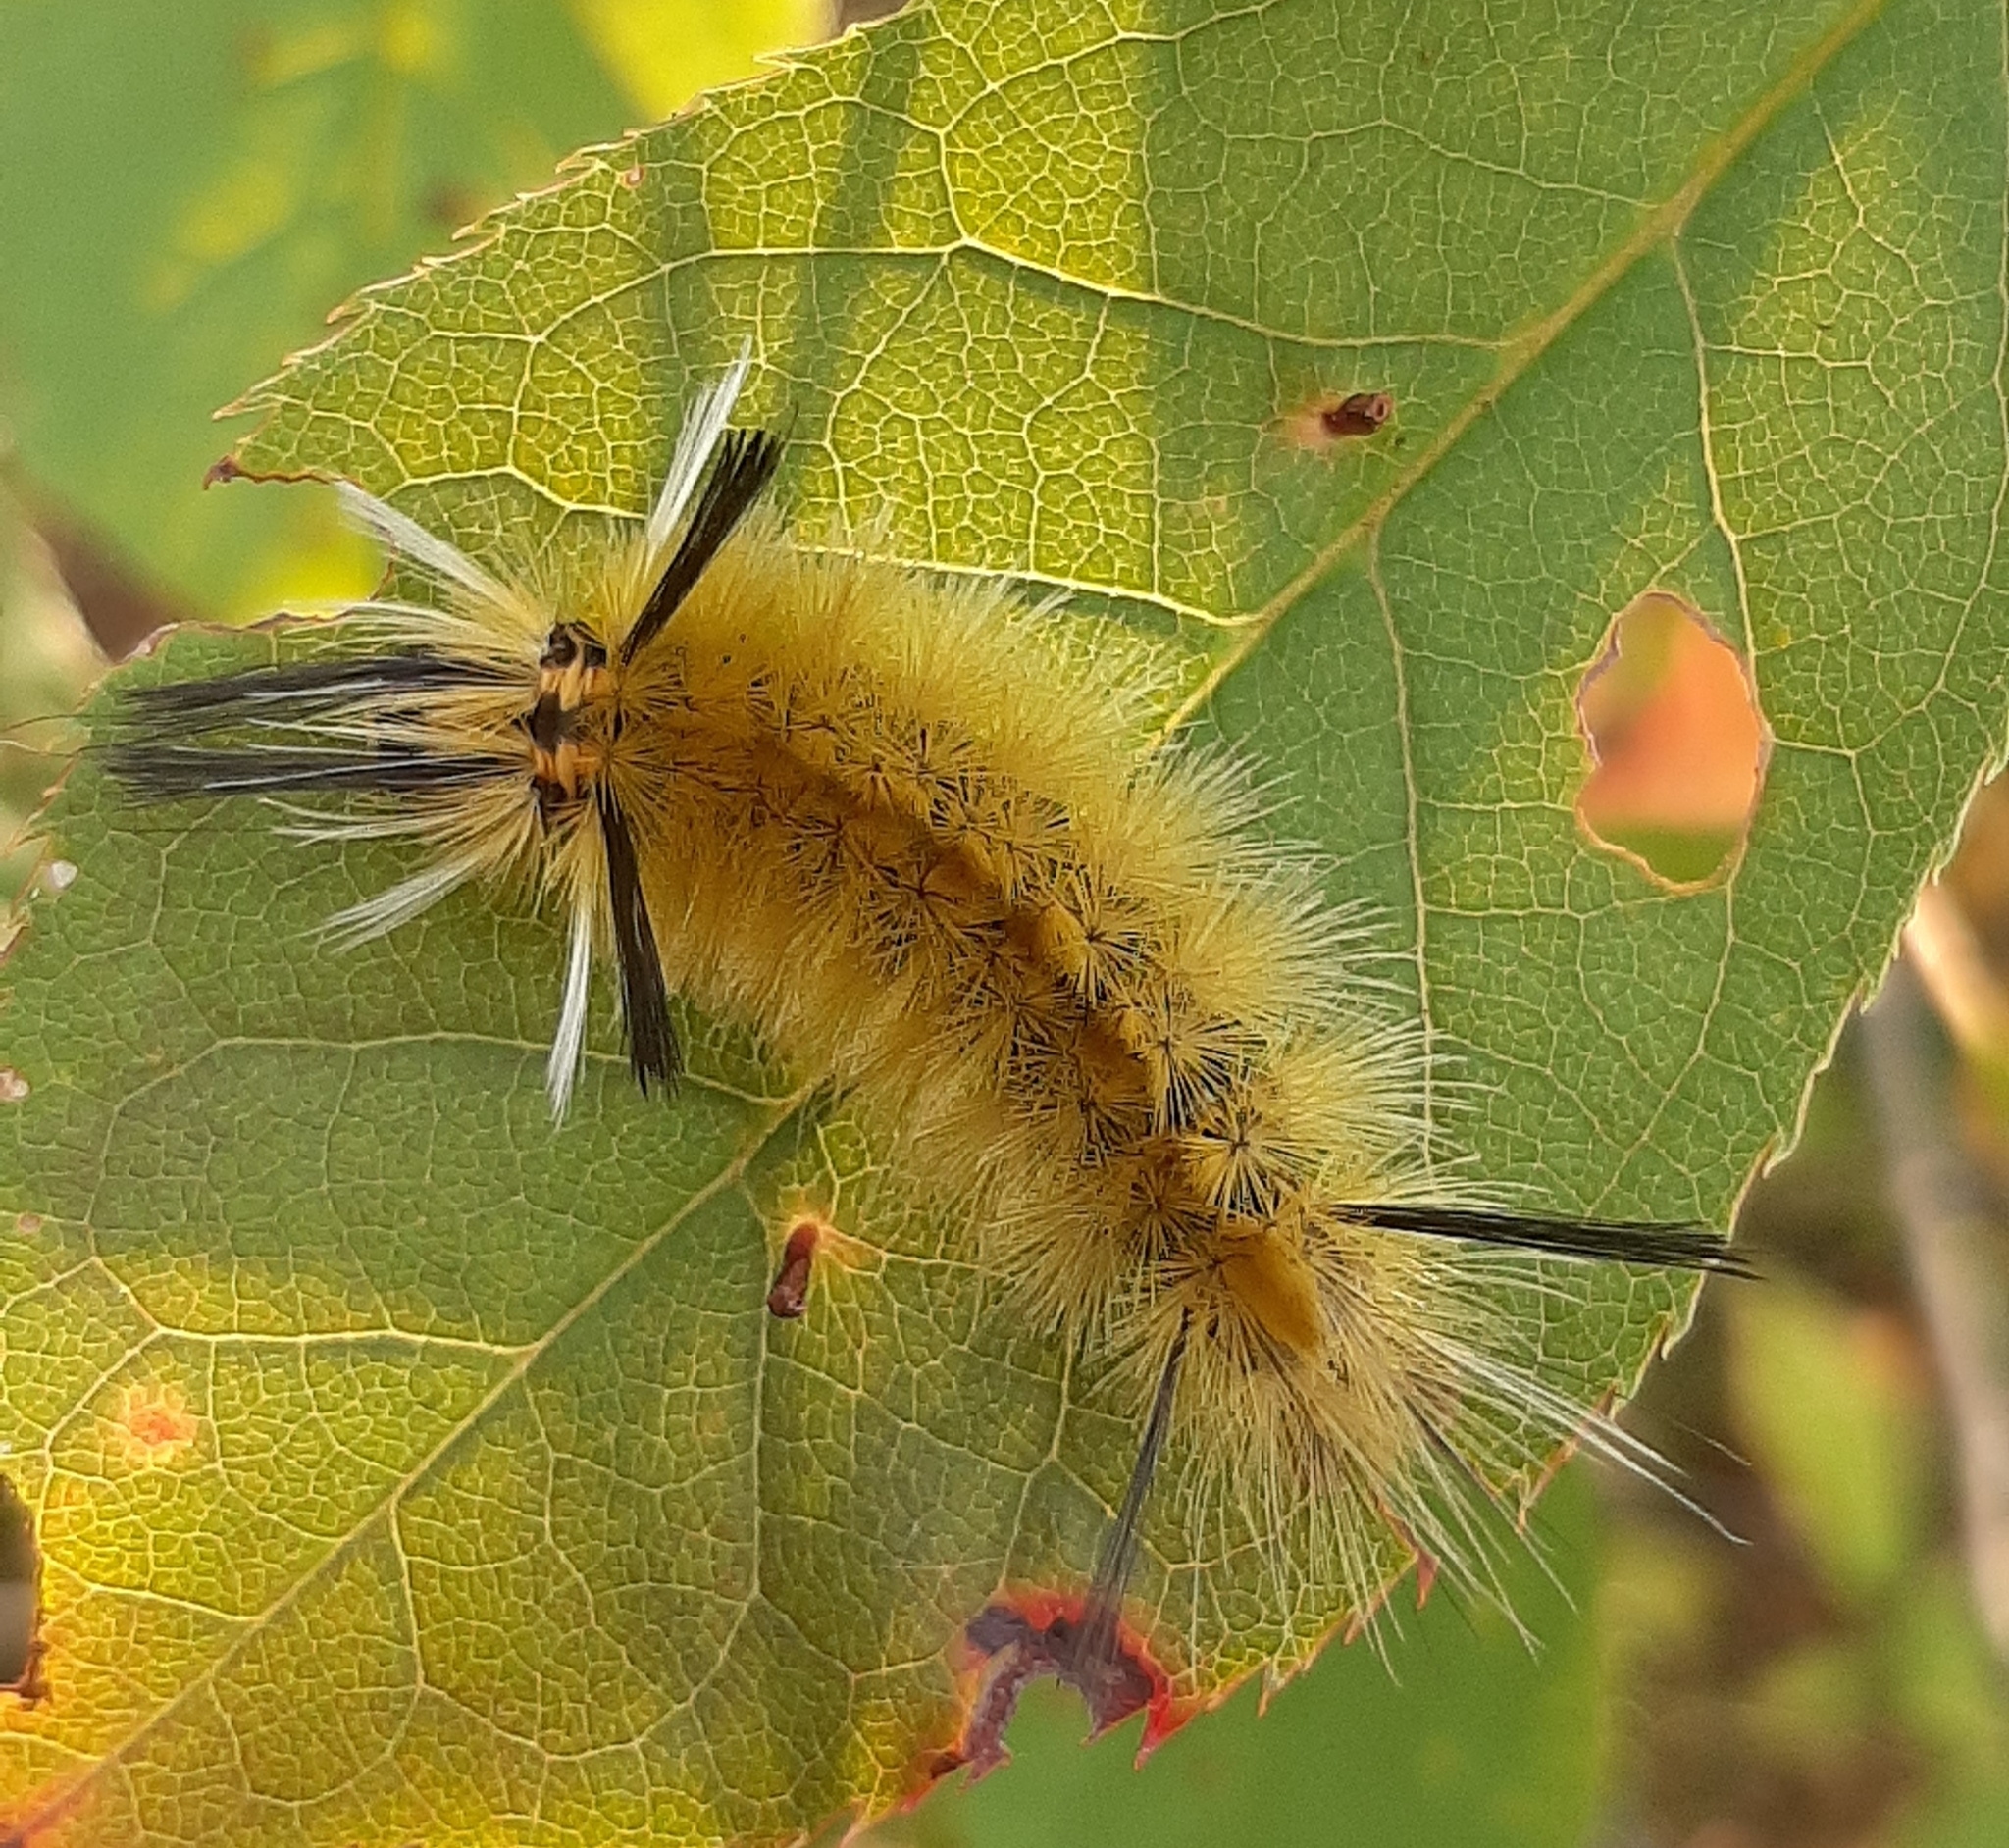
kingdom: Animalia
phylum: Arthropoda
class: Insecta
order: Lepidoptera
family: Erebidae
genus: Halysidota
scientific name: Halysidota tessellaris
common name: Banded tussock moth
